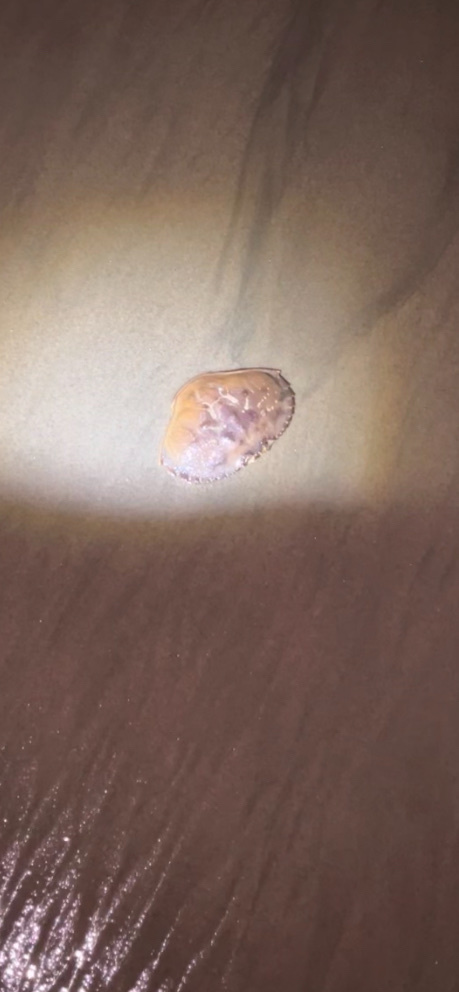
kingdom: Animalia
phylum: Arthropoda
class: Malacostraca
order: Decapoda
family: Cancridae
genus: Metacarcinus
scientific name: Metacarcinus magister
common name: Californian crab
